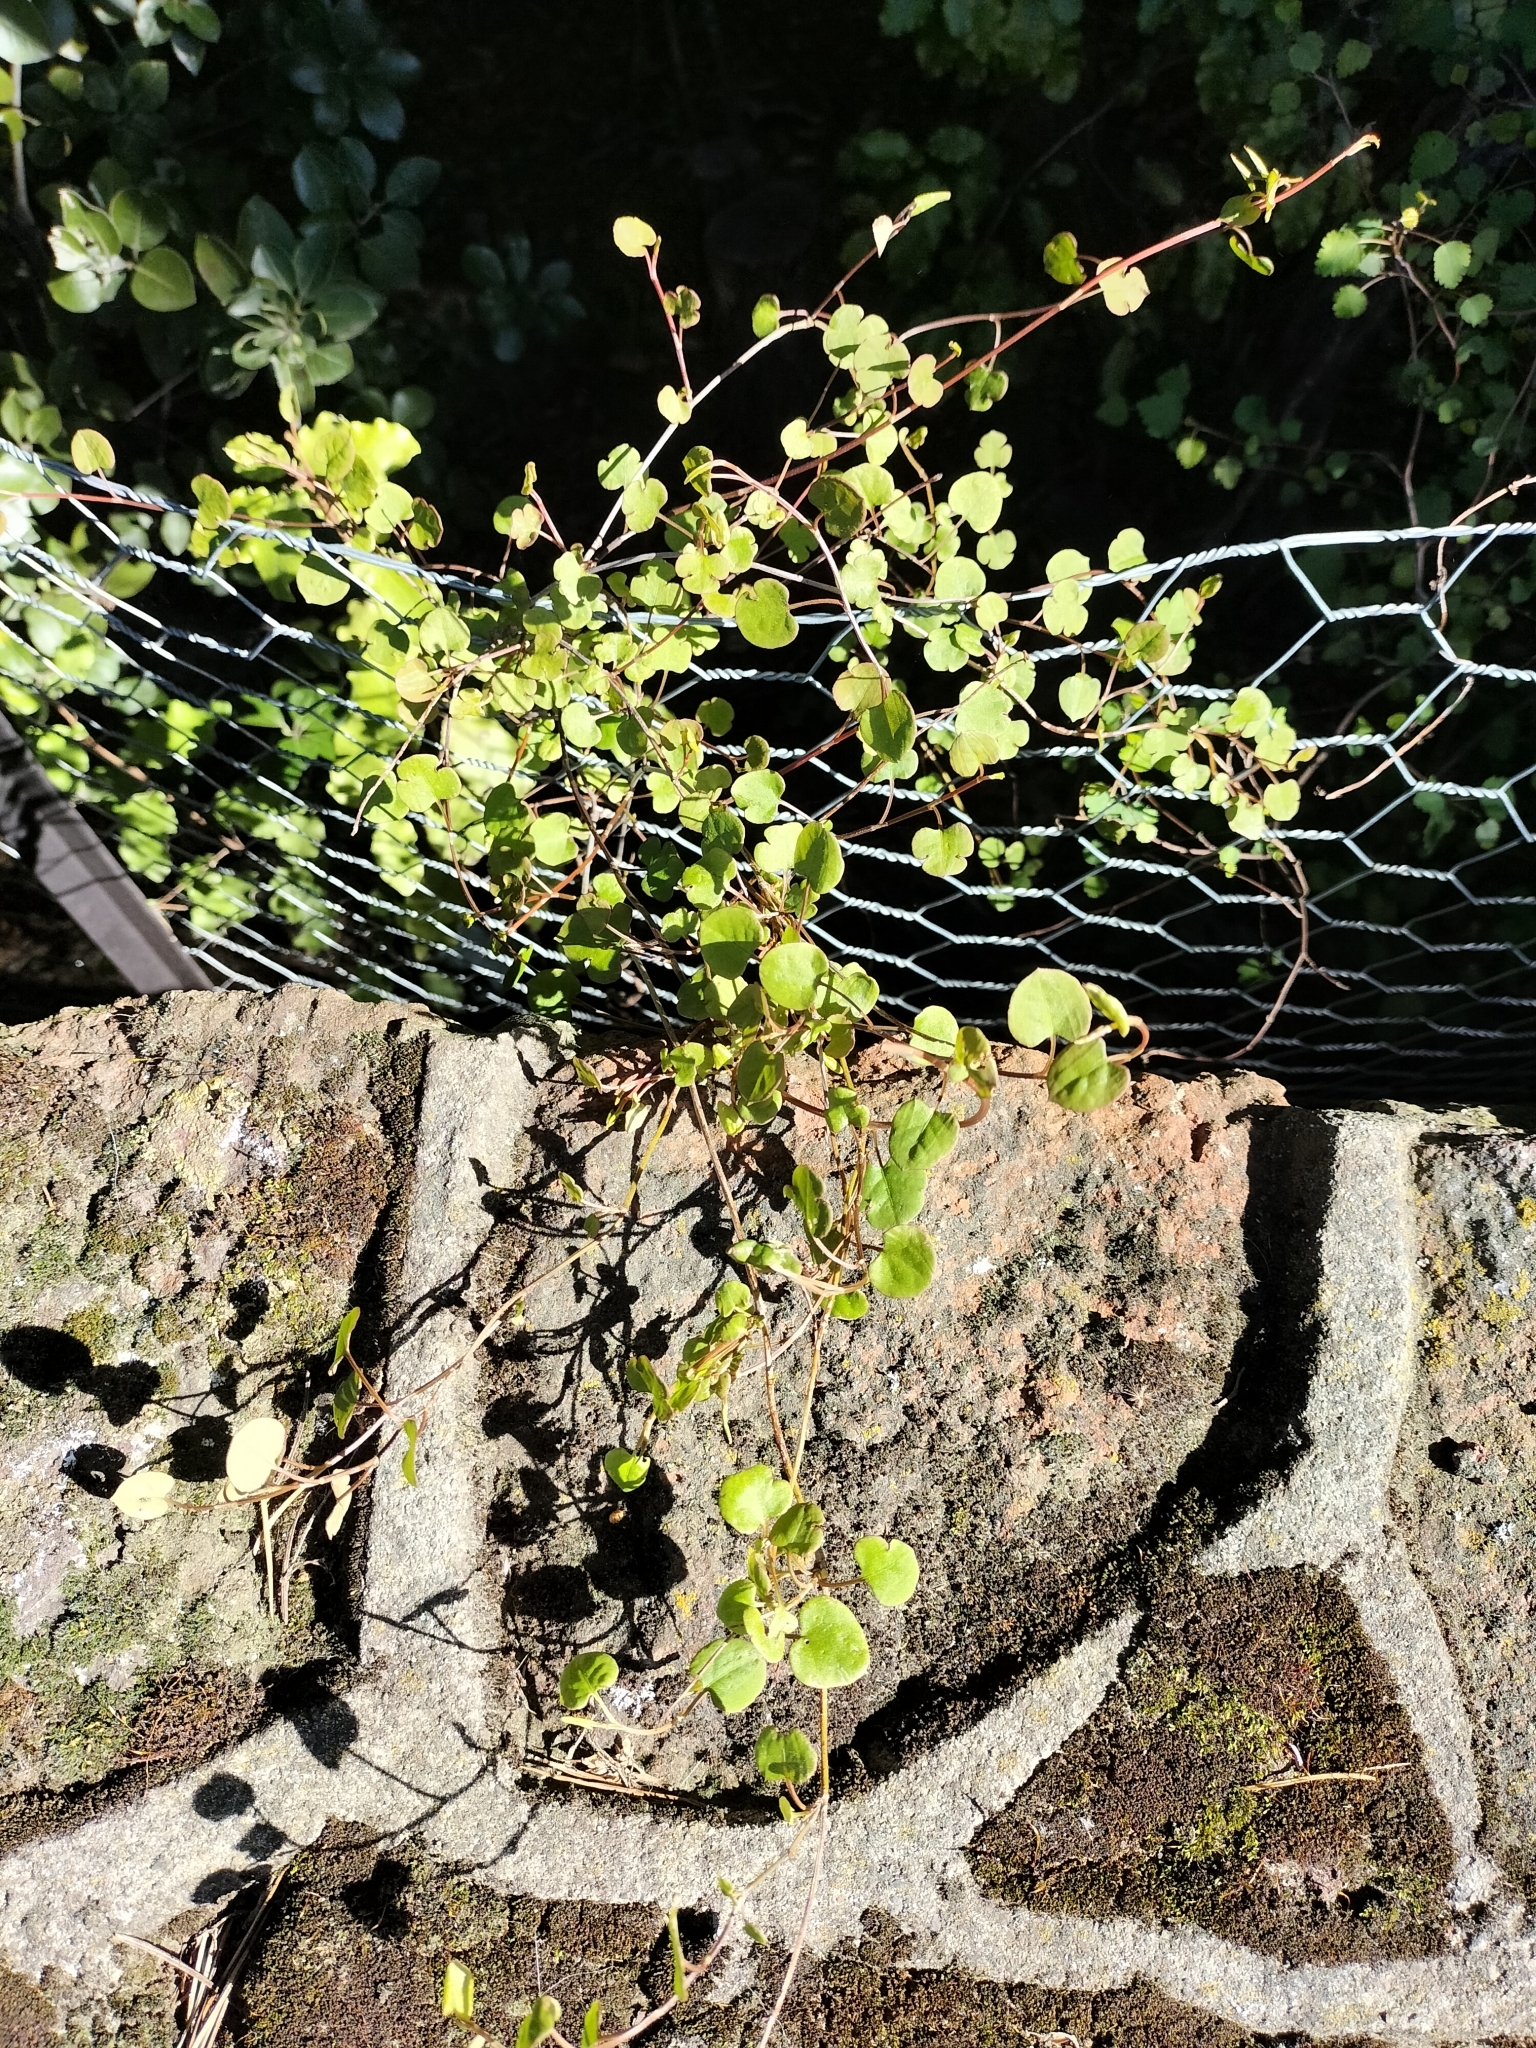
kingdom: Plantae
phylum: Tracheophyta
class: Magnoliopsida
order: Caryophyllales
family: Polygonaceae
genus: Muehlenbeckia
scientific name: Muehlenbeckia australis
